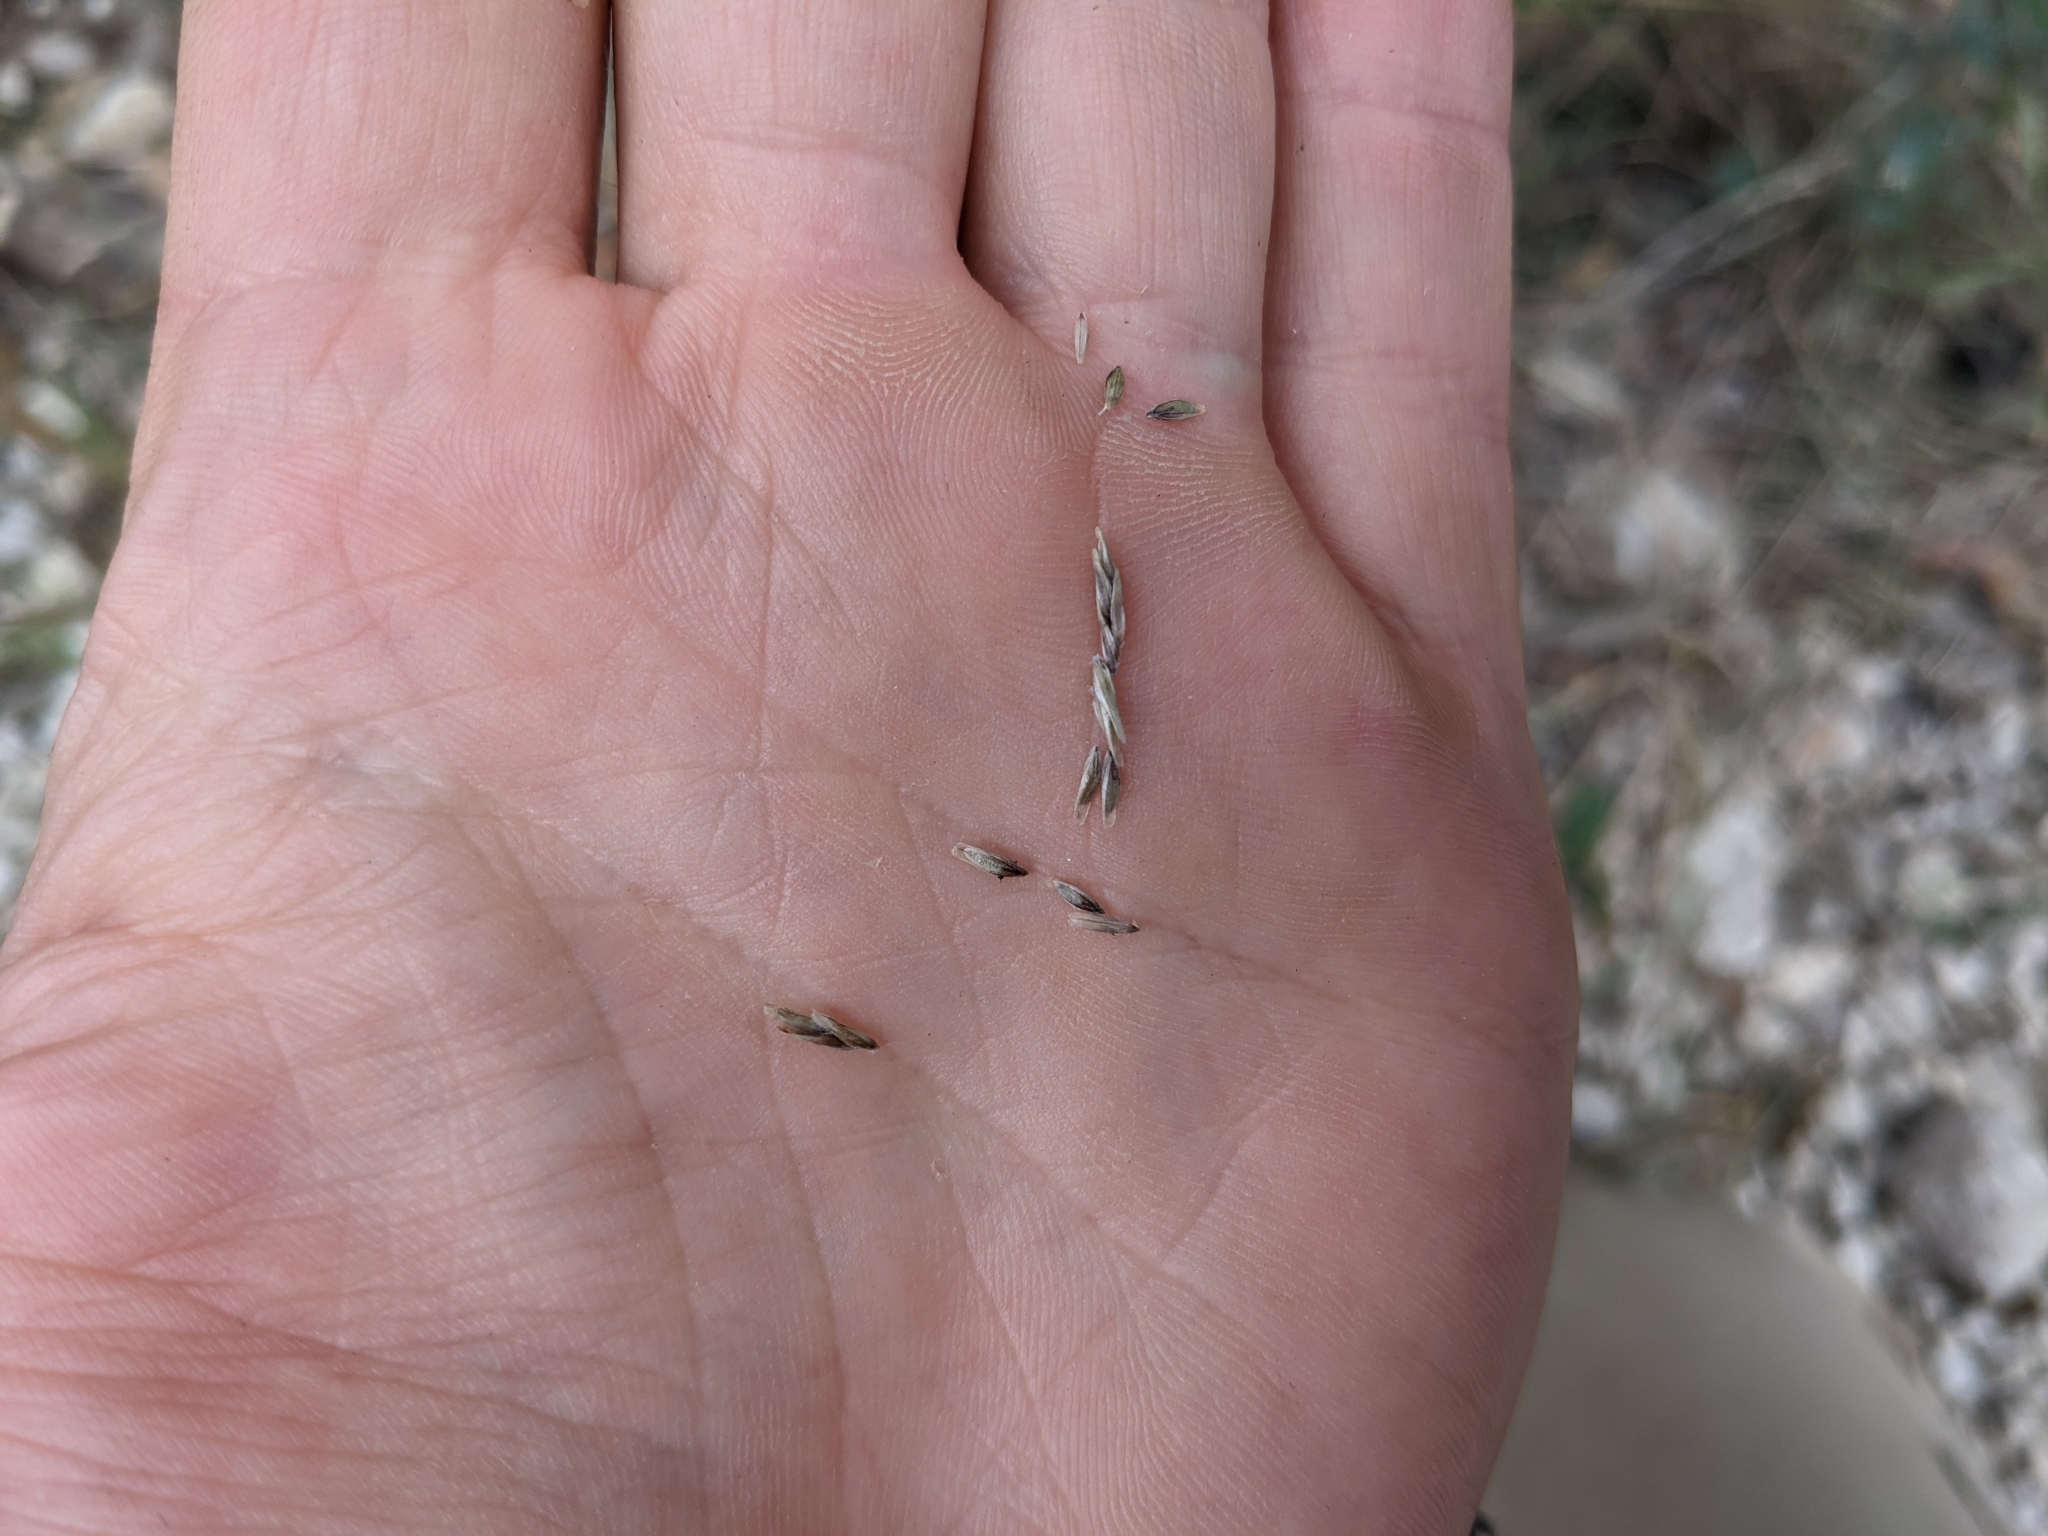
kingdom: Plantae
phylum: Tracheophyta
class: Liliopsida
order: Poales
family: Poaceae
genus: Tridentopsis
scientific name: Tridentopsis buckleyana
